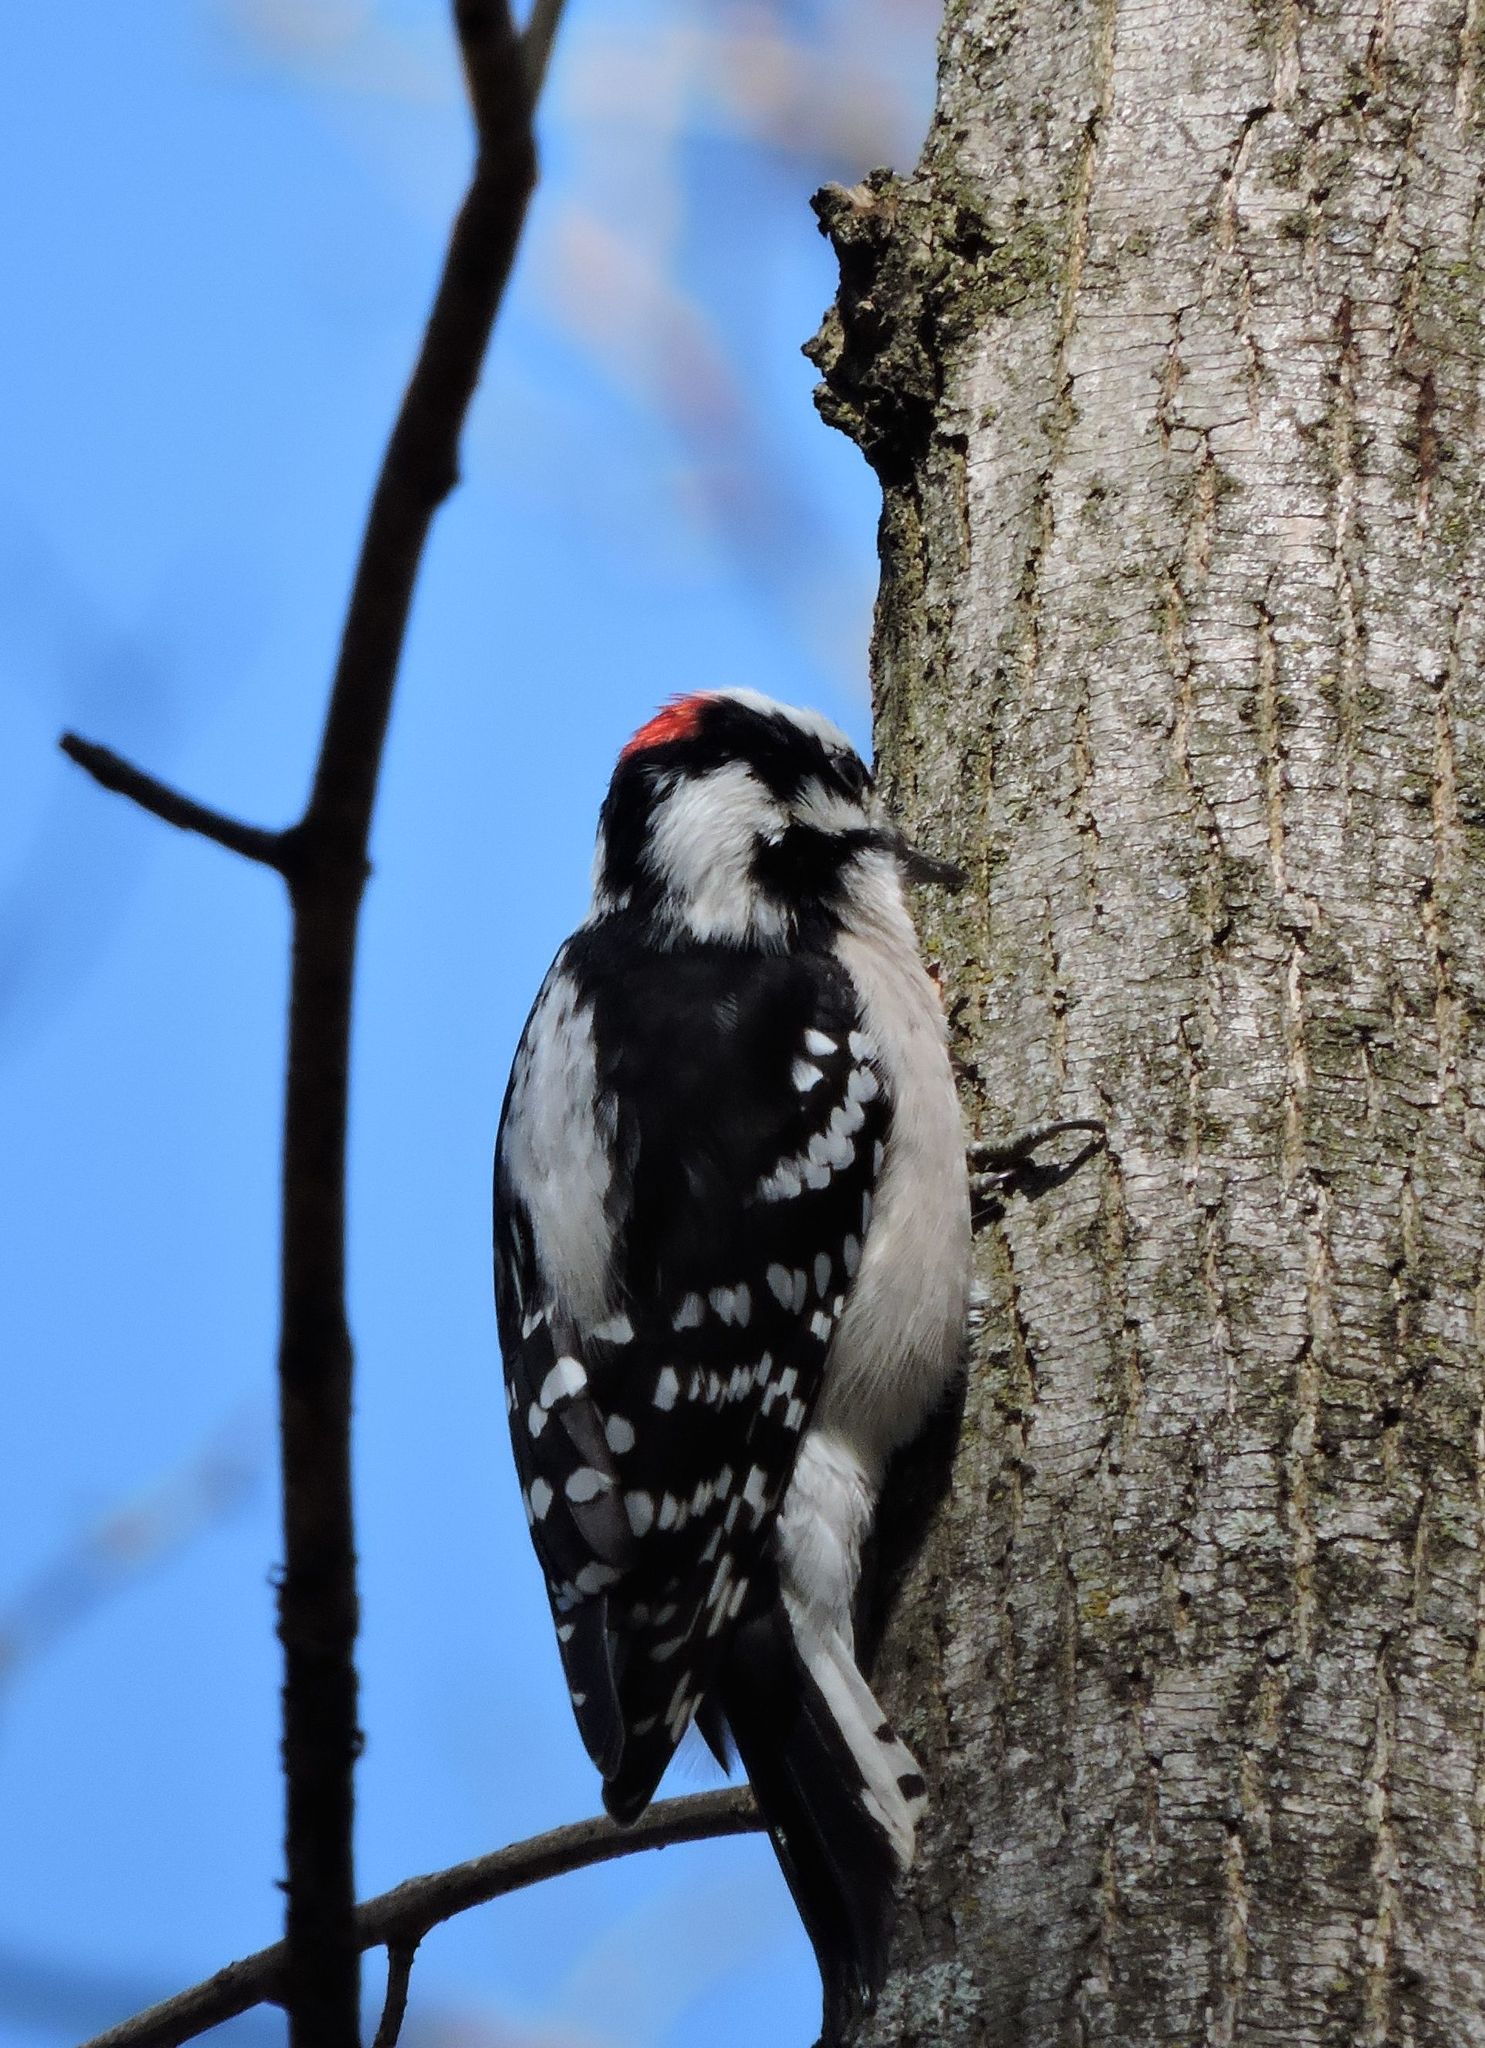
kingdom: Animalia
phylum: Chordata
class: Aves
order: Piciformes
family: Picidae
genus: Dryobates
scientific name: Dryobates pubescens
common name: Downy woodpecker
